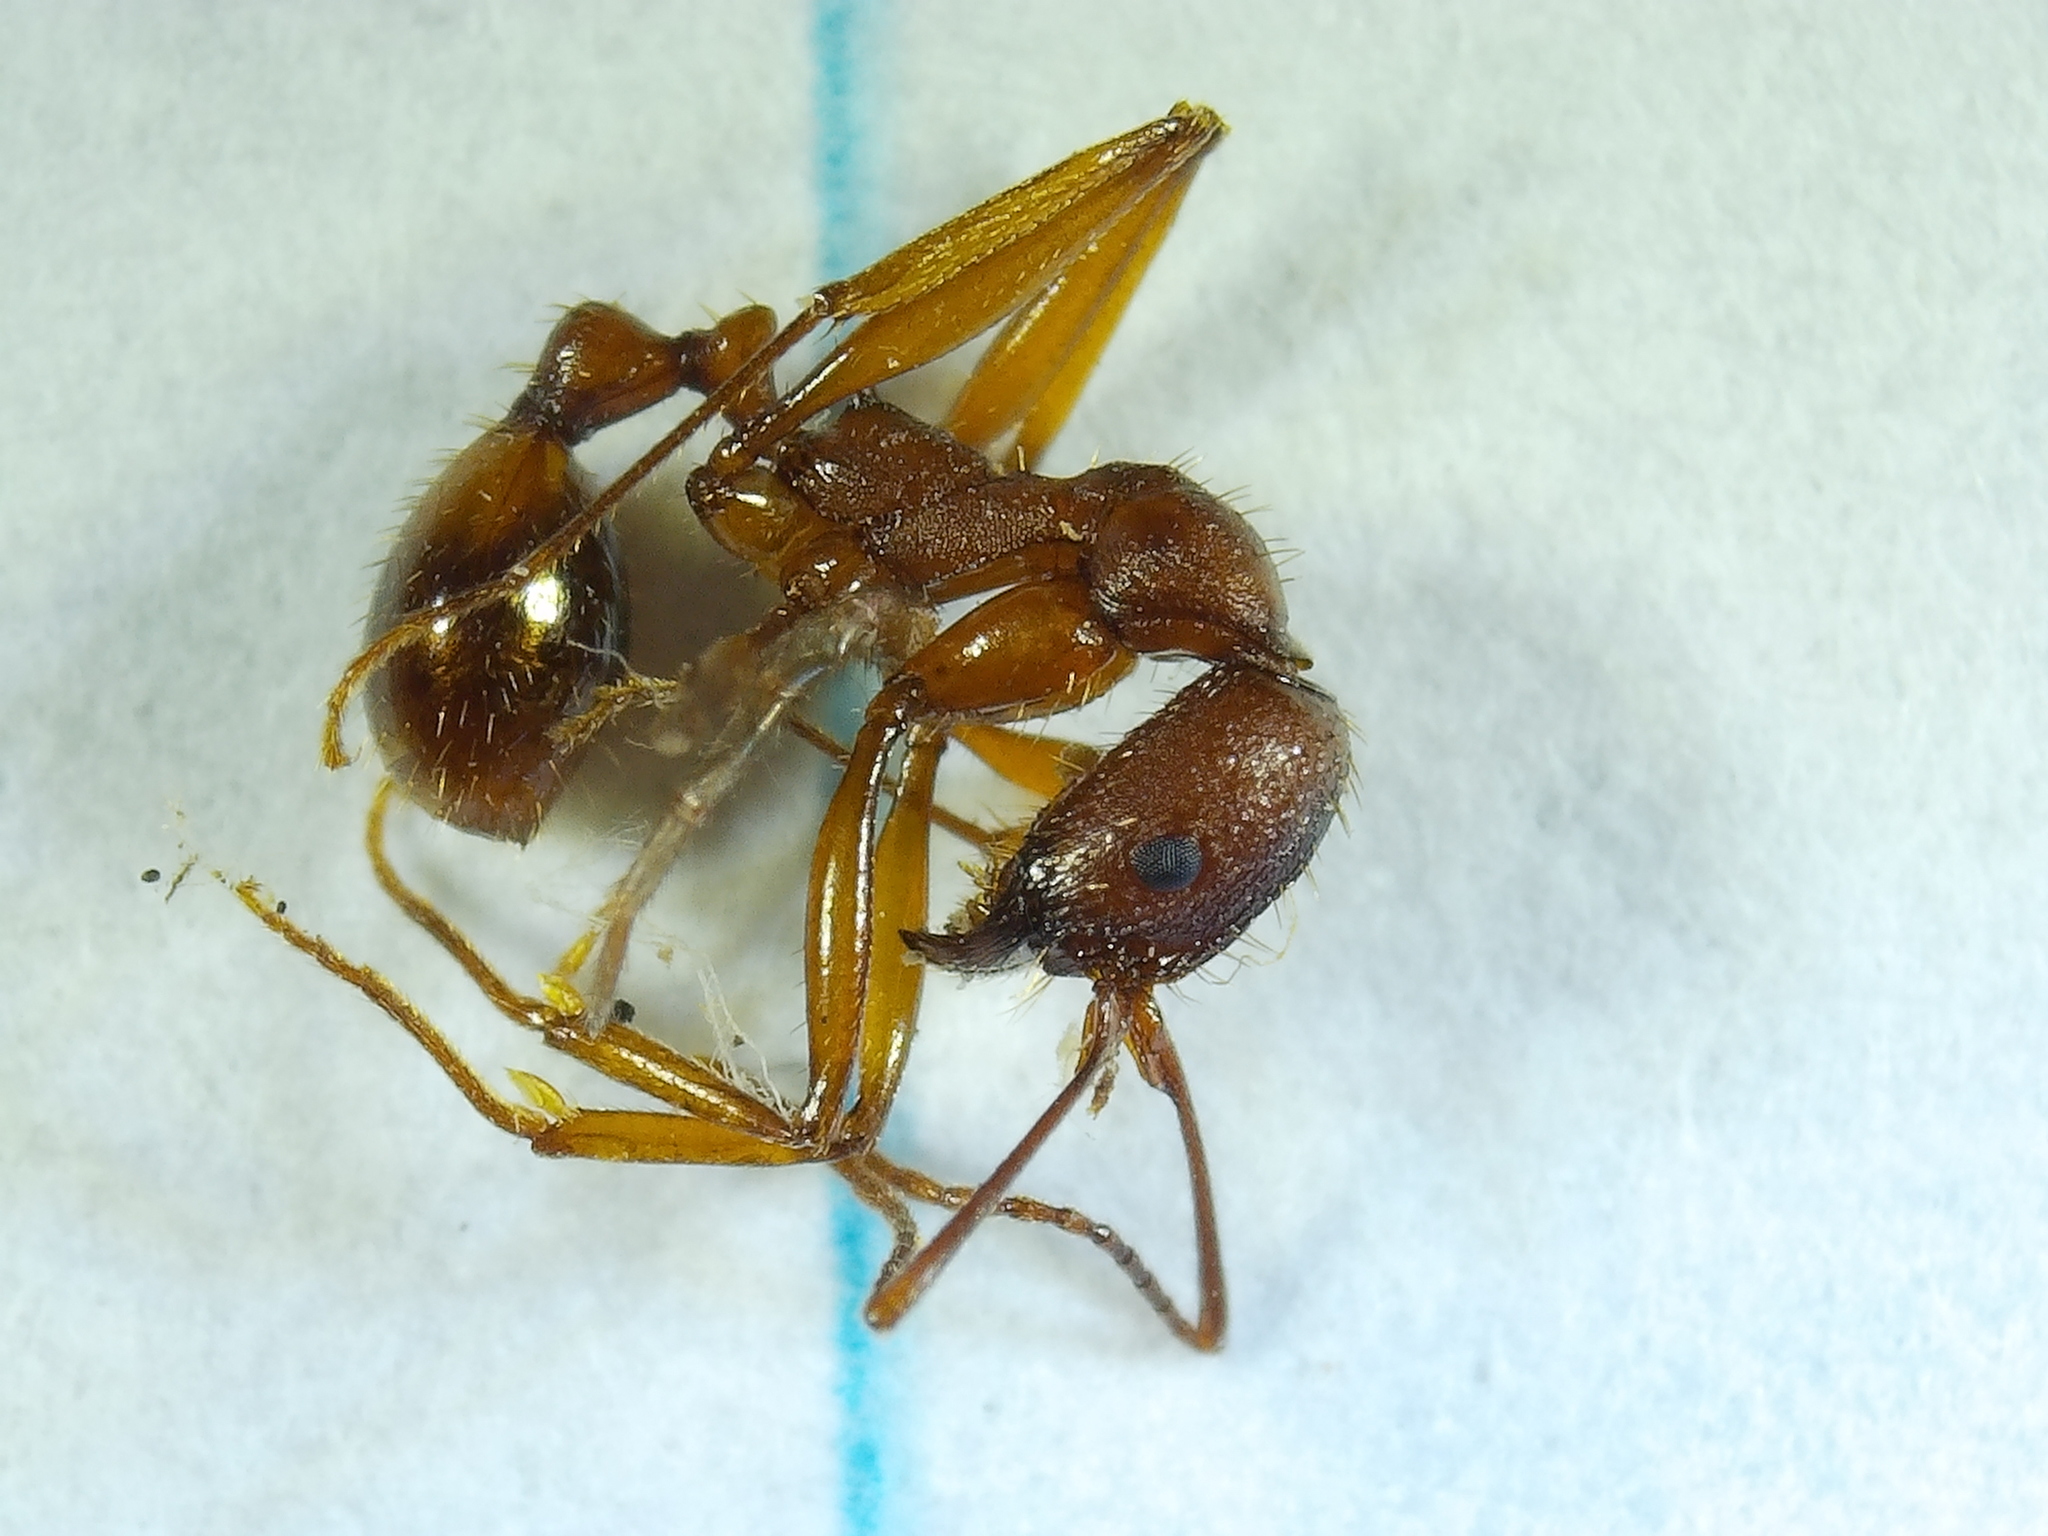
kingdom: Animalia
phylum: Arthropoda
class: Insecta
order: Hymenoptera
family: Formicidae
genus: Aphaenogaster
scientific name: Aphaenogaster treatae
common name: Treat's collared ant
